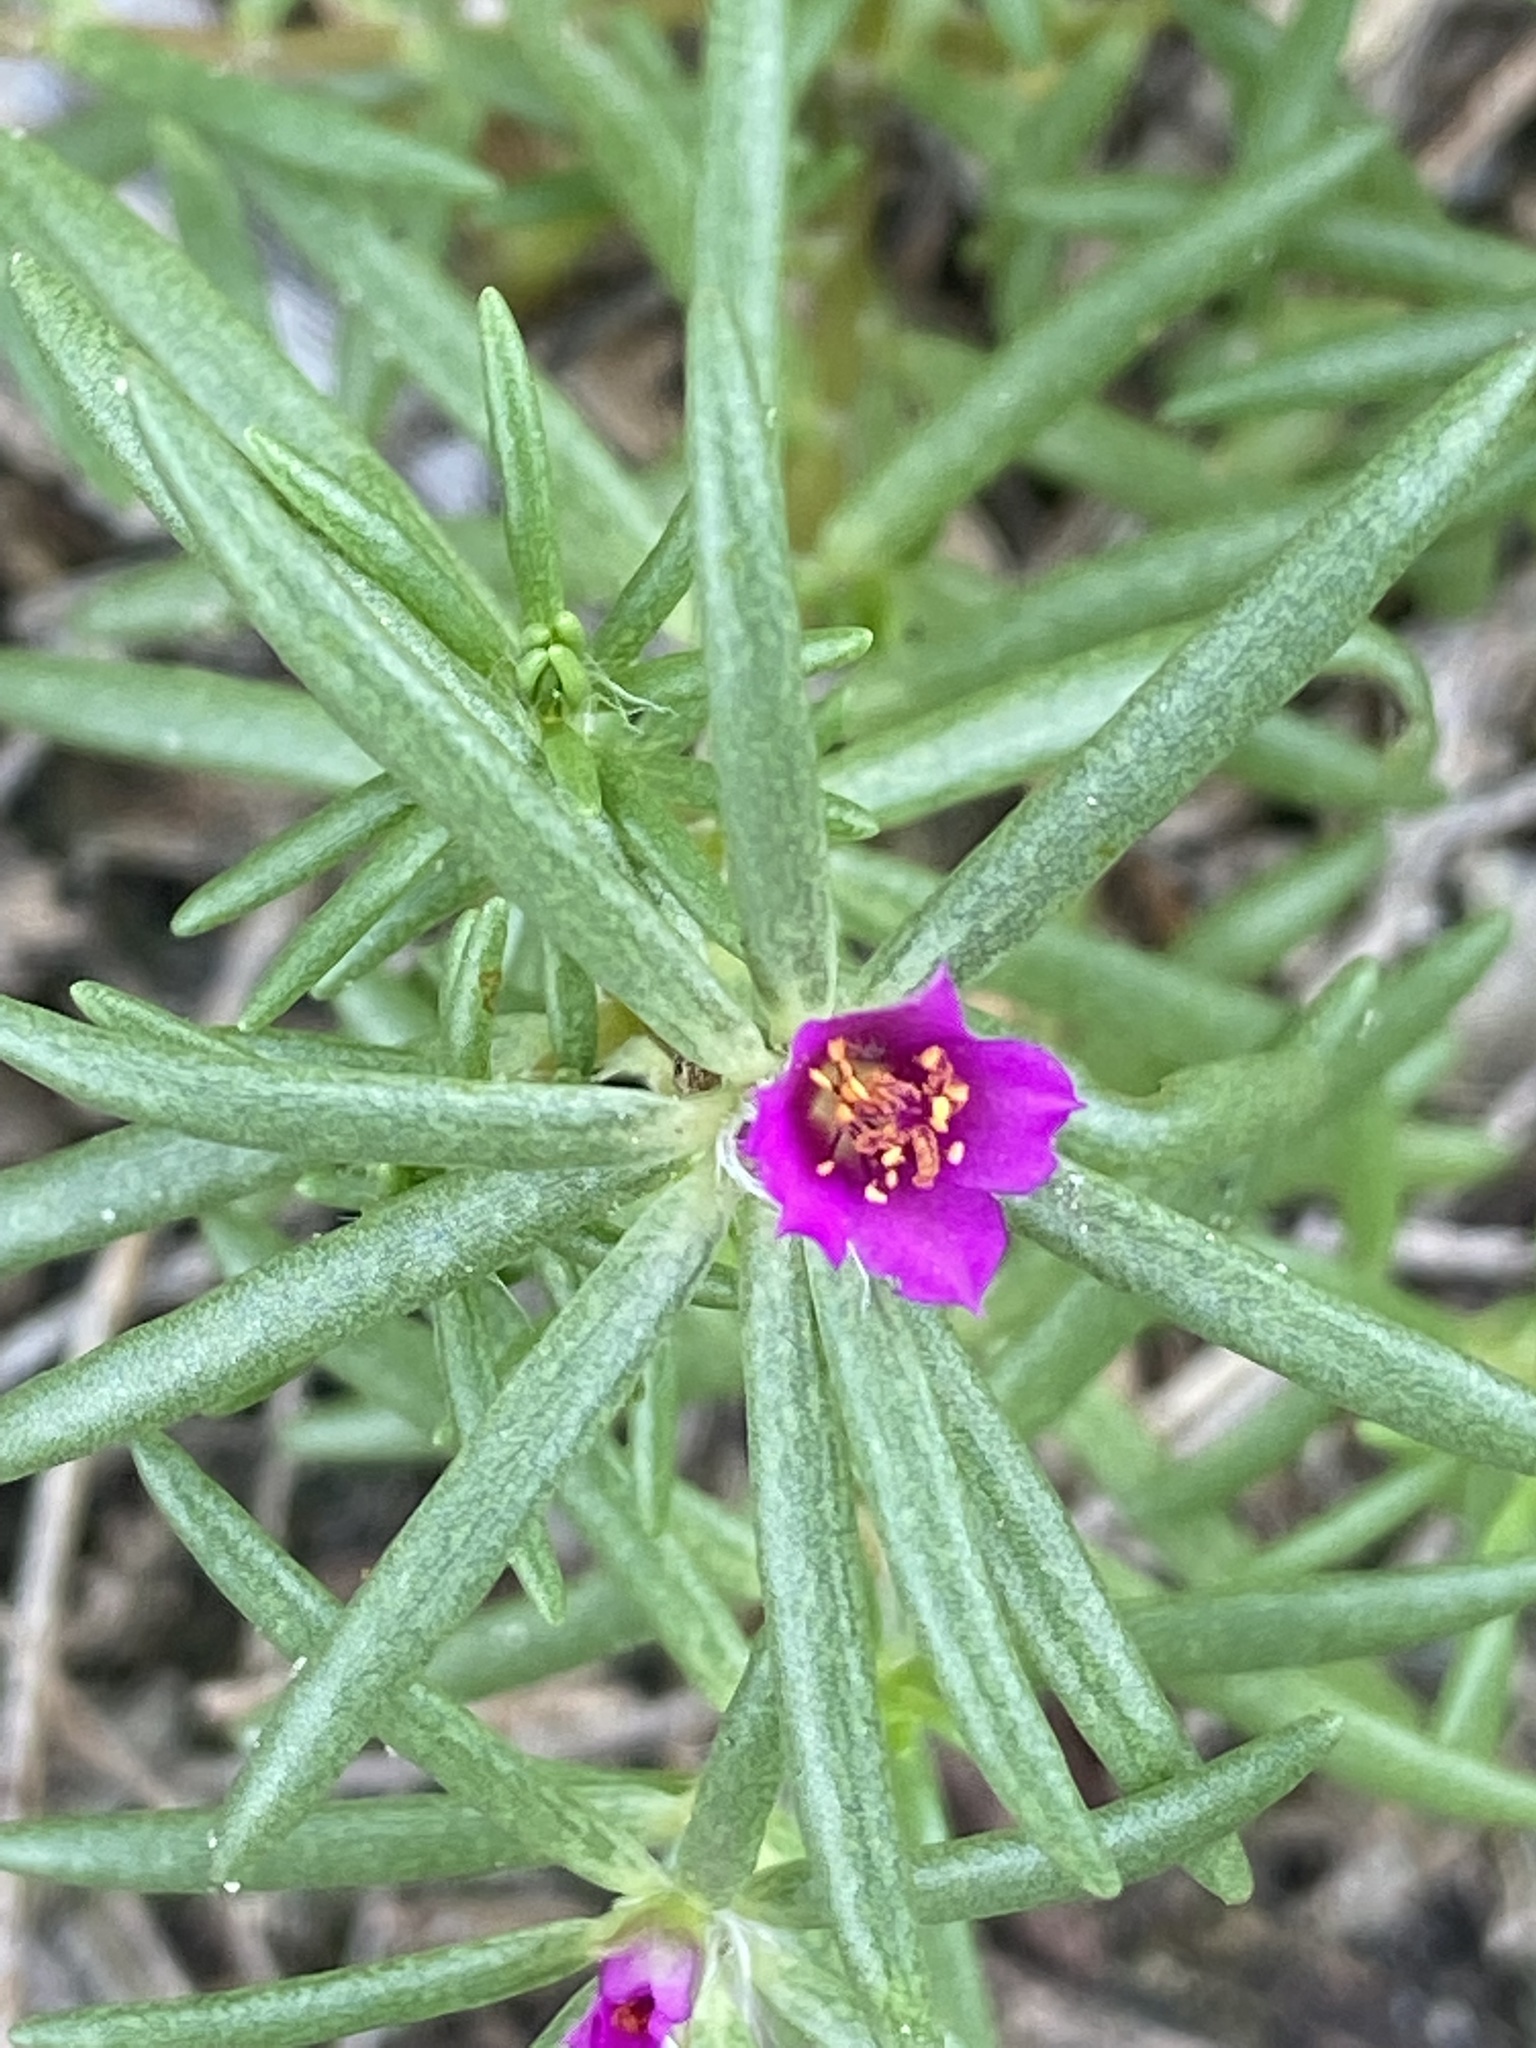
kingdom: Plantae
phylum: Tracheophyta
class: Magnoliopsida
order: Caryophyllales
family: Portulacaceae
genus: Portulaca
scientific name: Portulaca pilosa
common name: Kiss me quick
